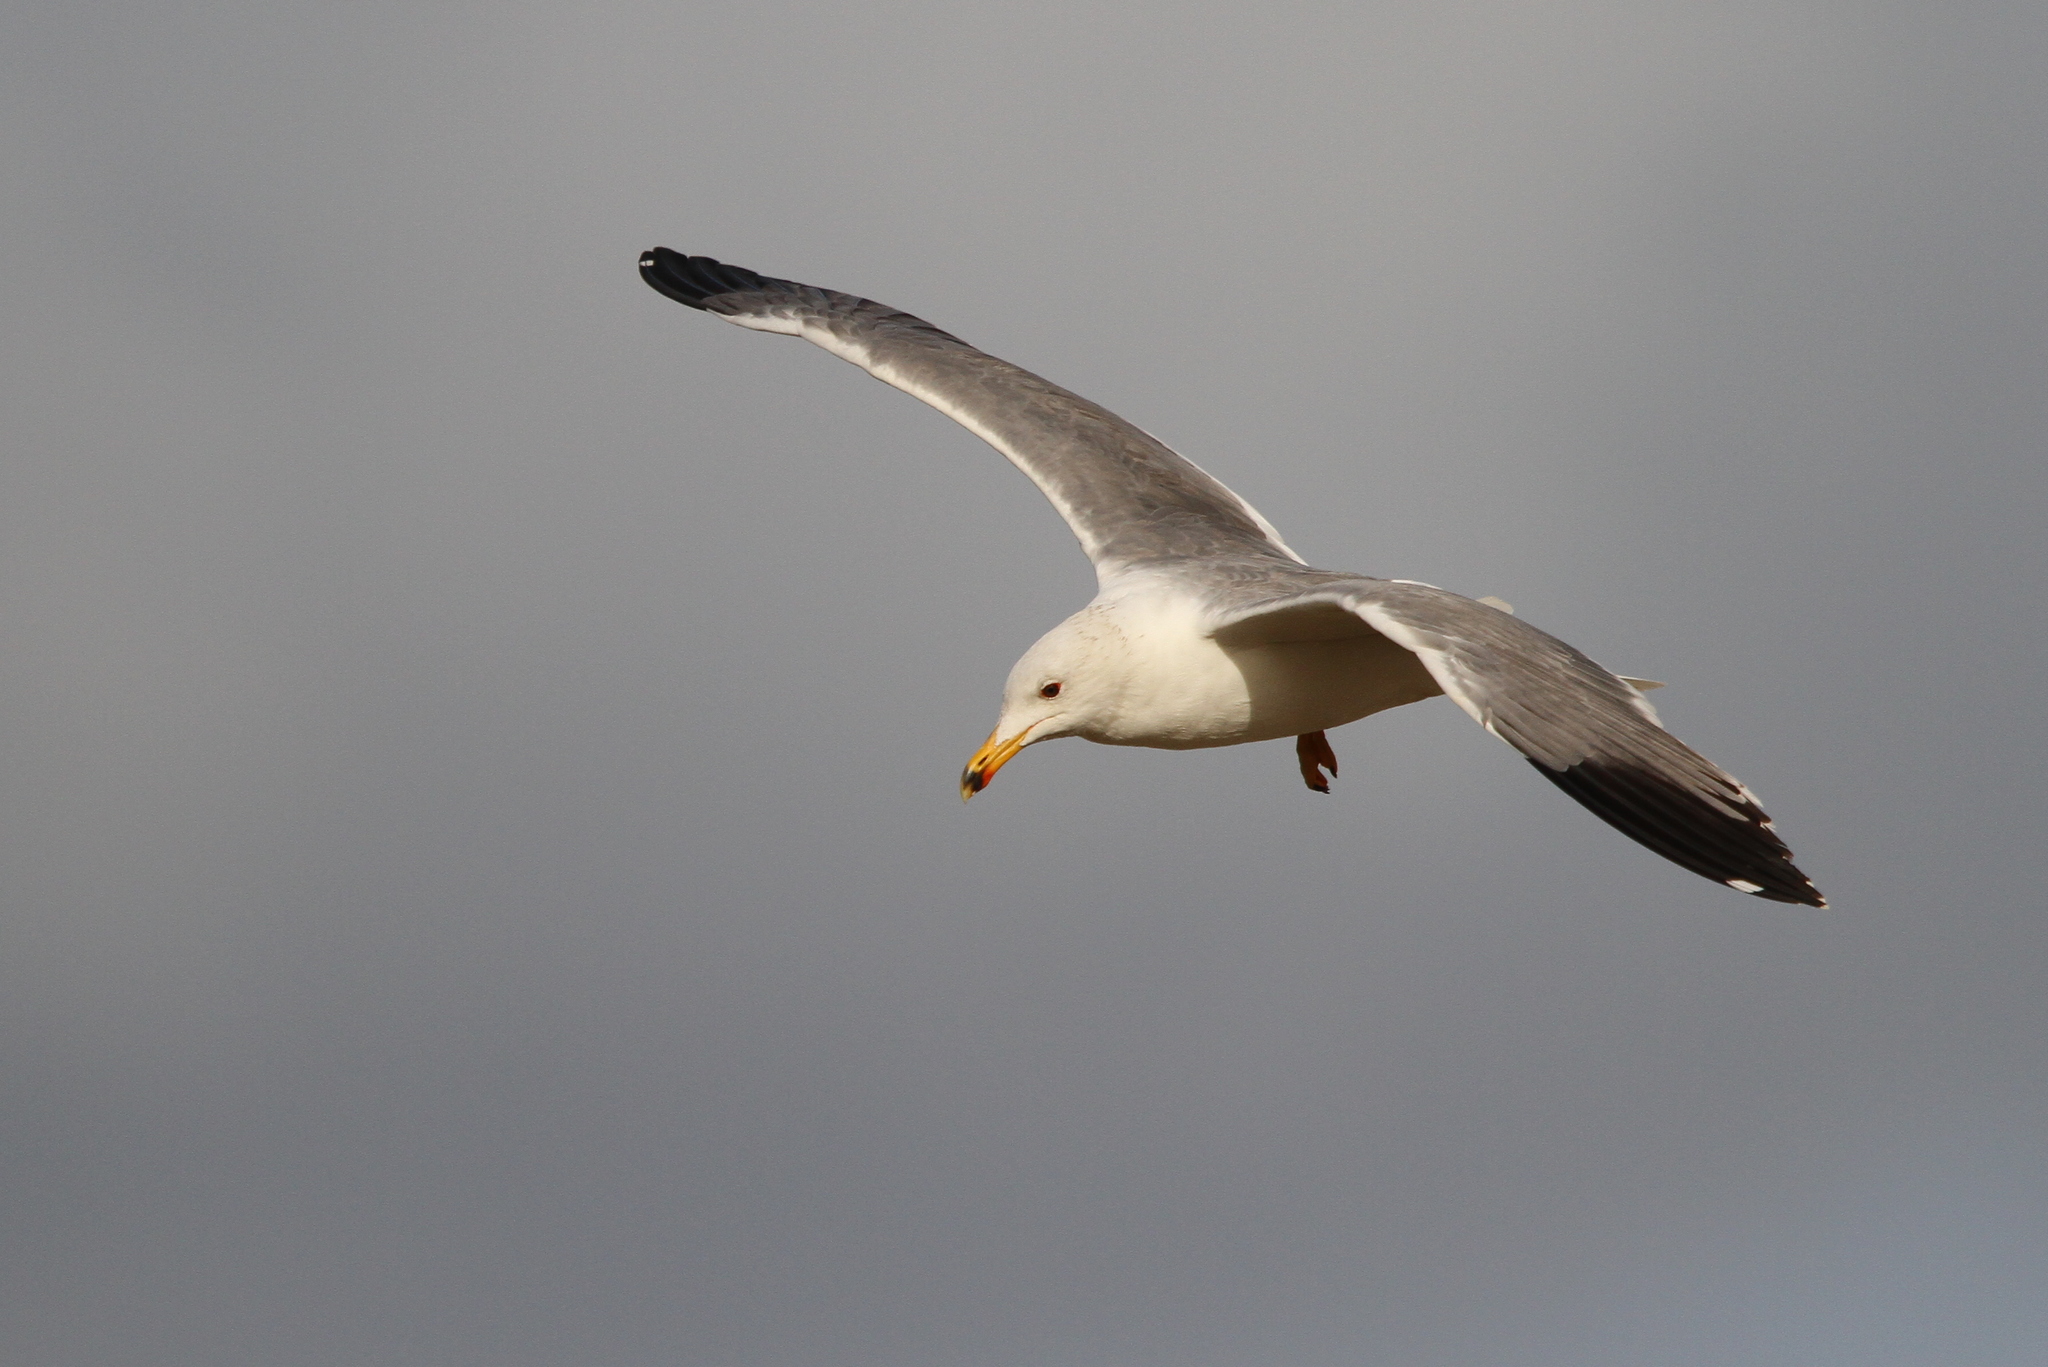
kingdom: Animalia
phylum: Chordata
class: Aves
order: Charadriiformes
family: Laridae
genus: Larus
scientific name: Larus armenicus
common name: Armenian gull
